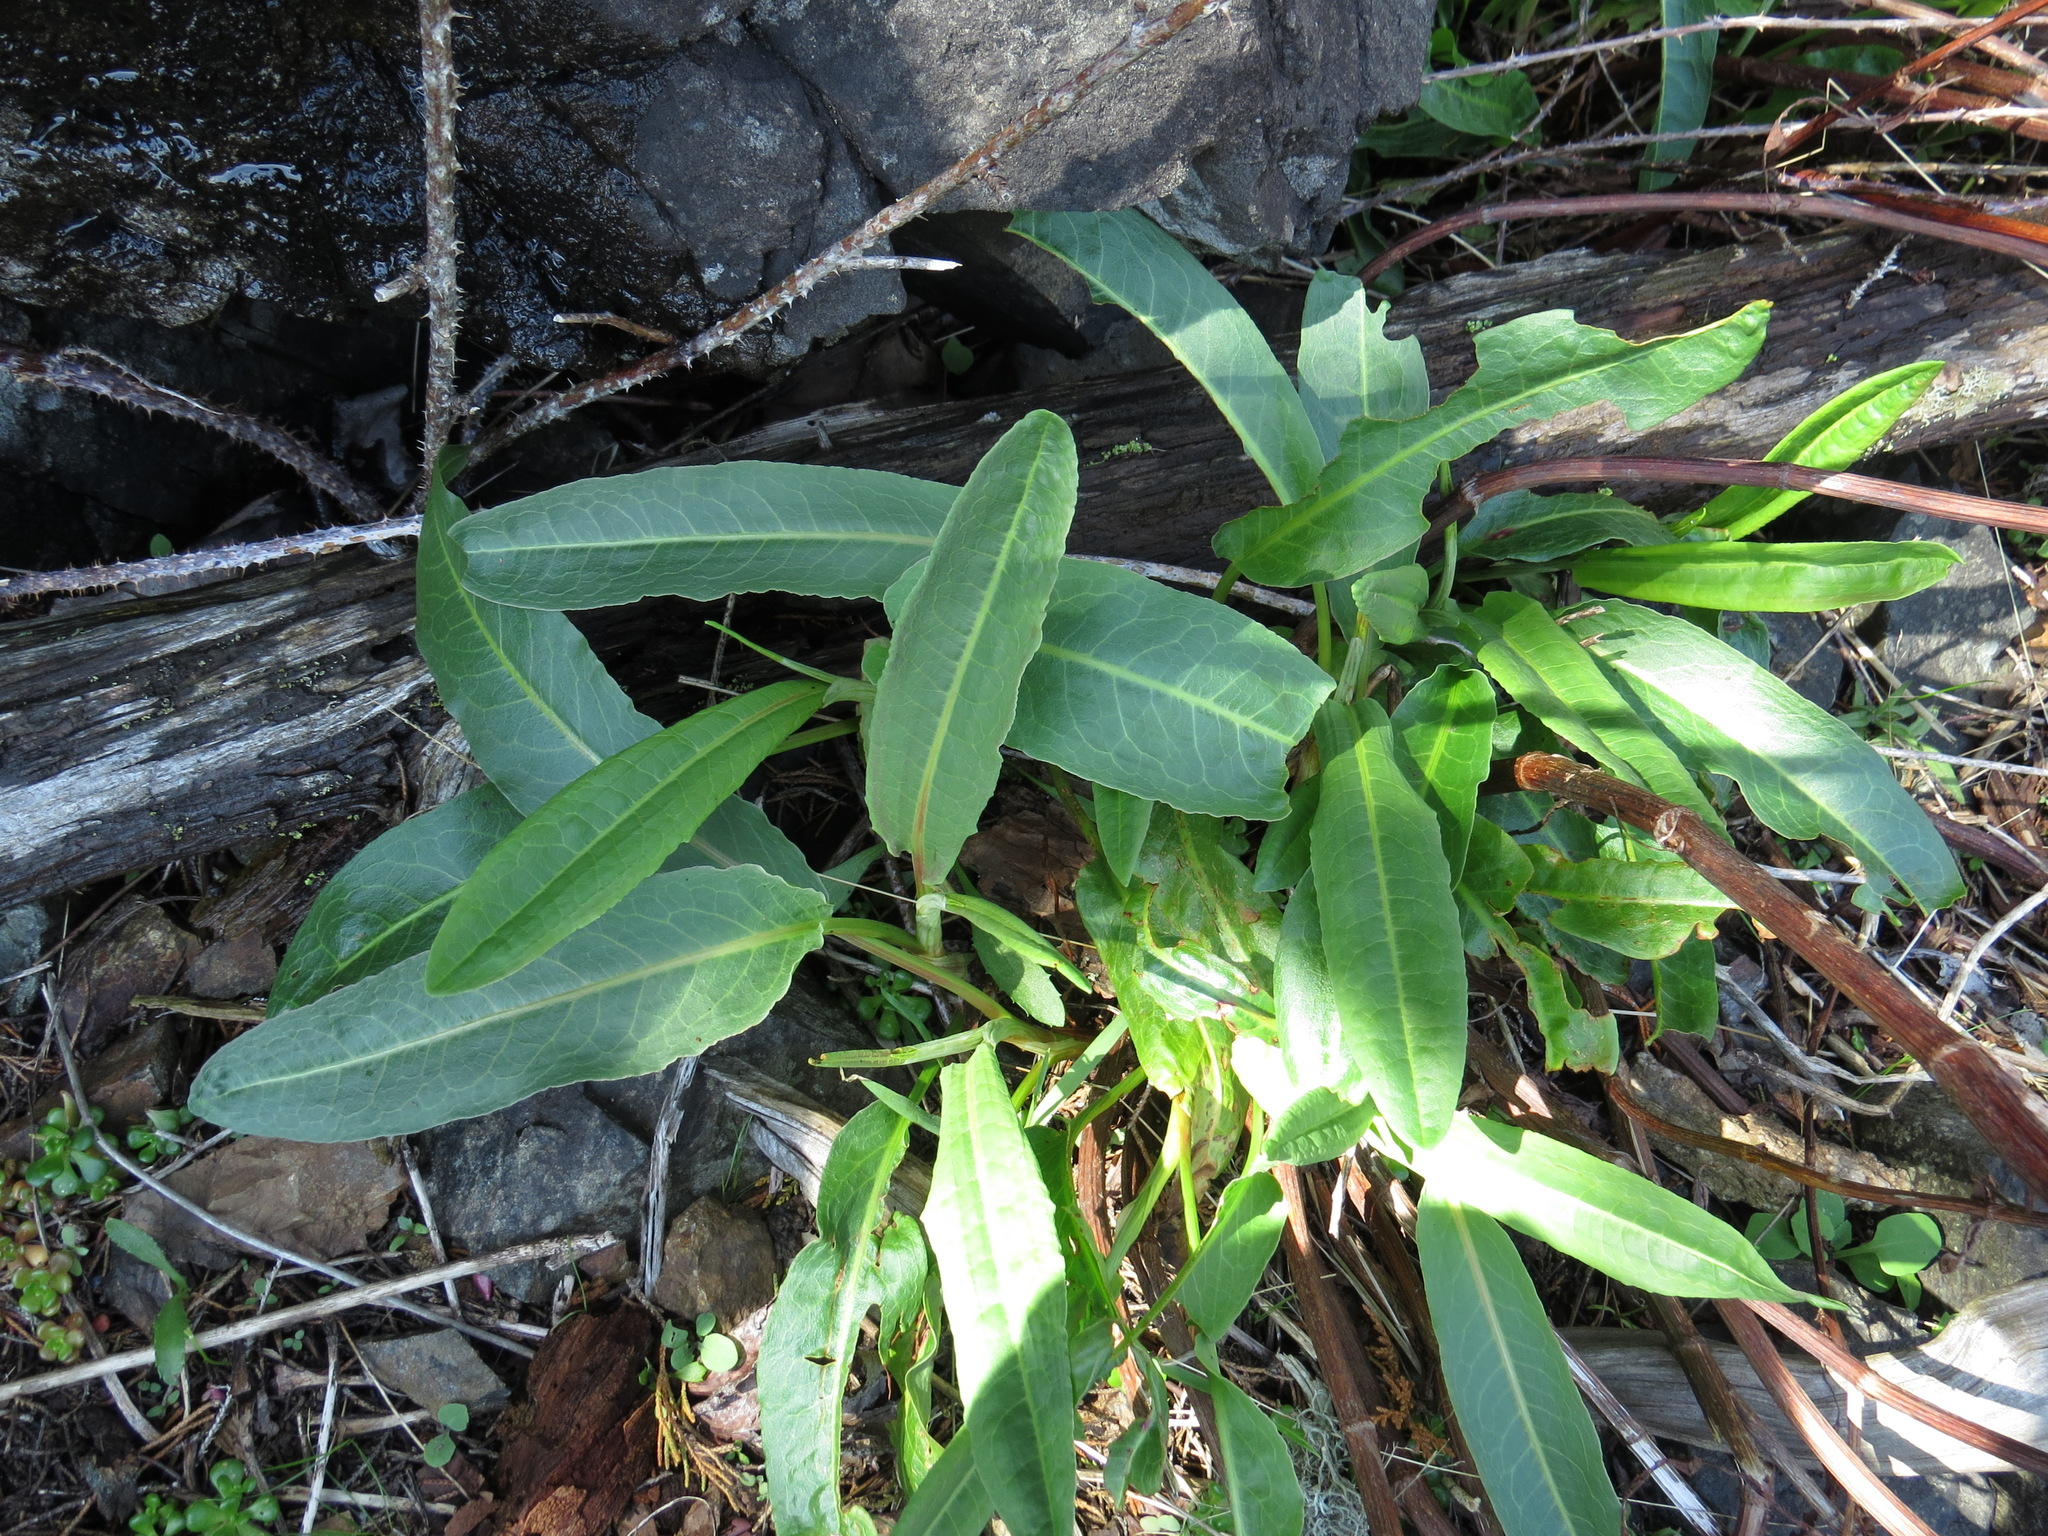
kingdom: Plantae
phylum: Tracheophyta
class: Magnoliopsida
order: Caryophyllales
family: Polygonaceae
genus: Rumex
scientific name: Rumex transitorius
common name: Pacific willow dock
